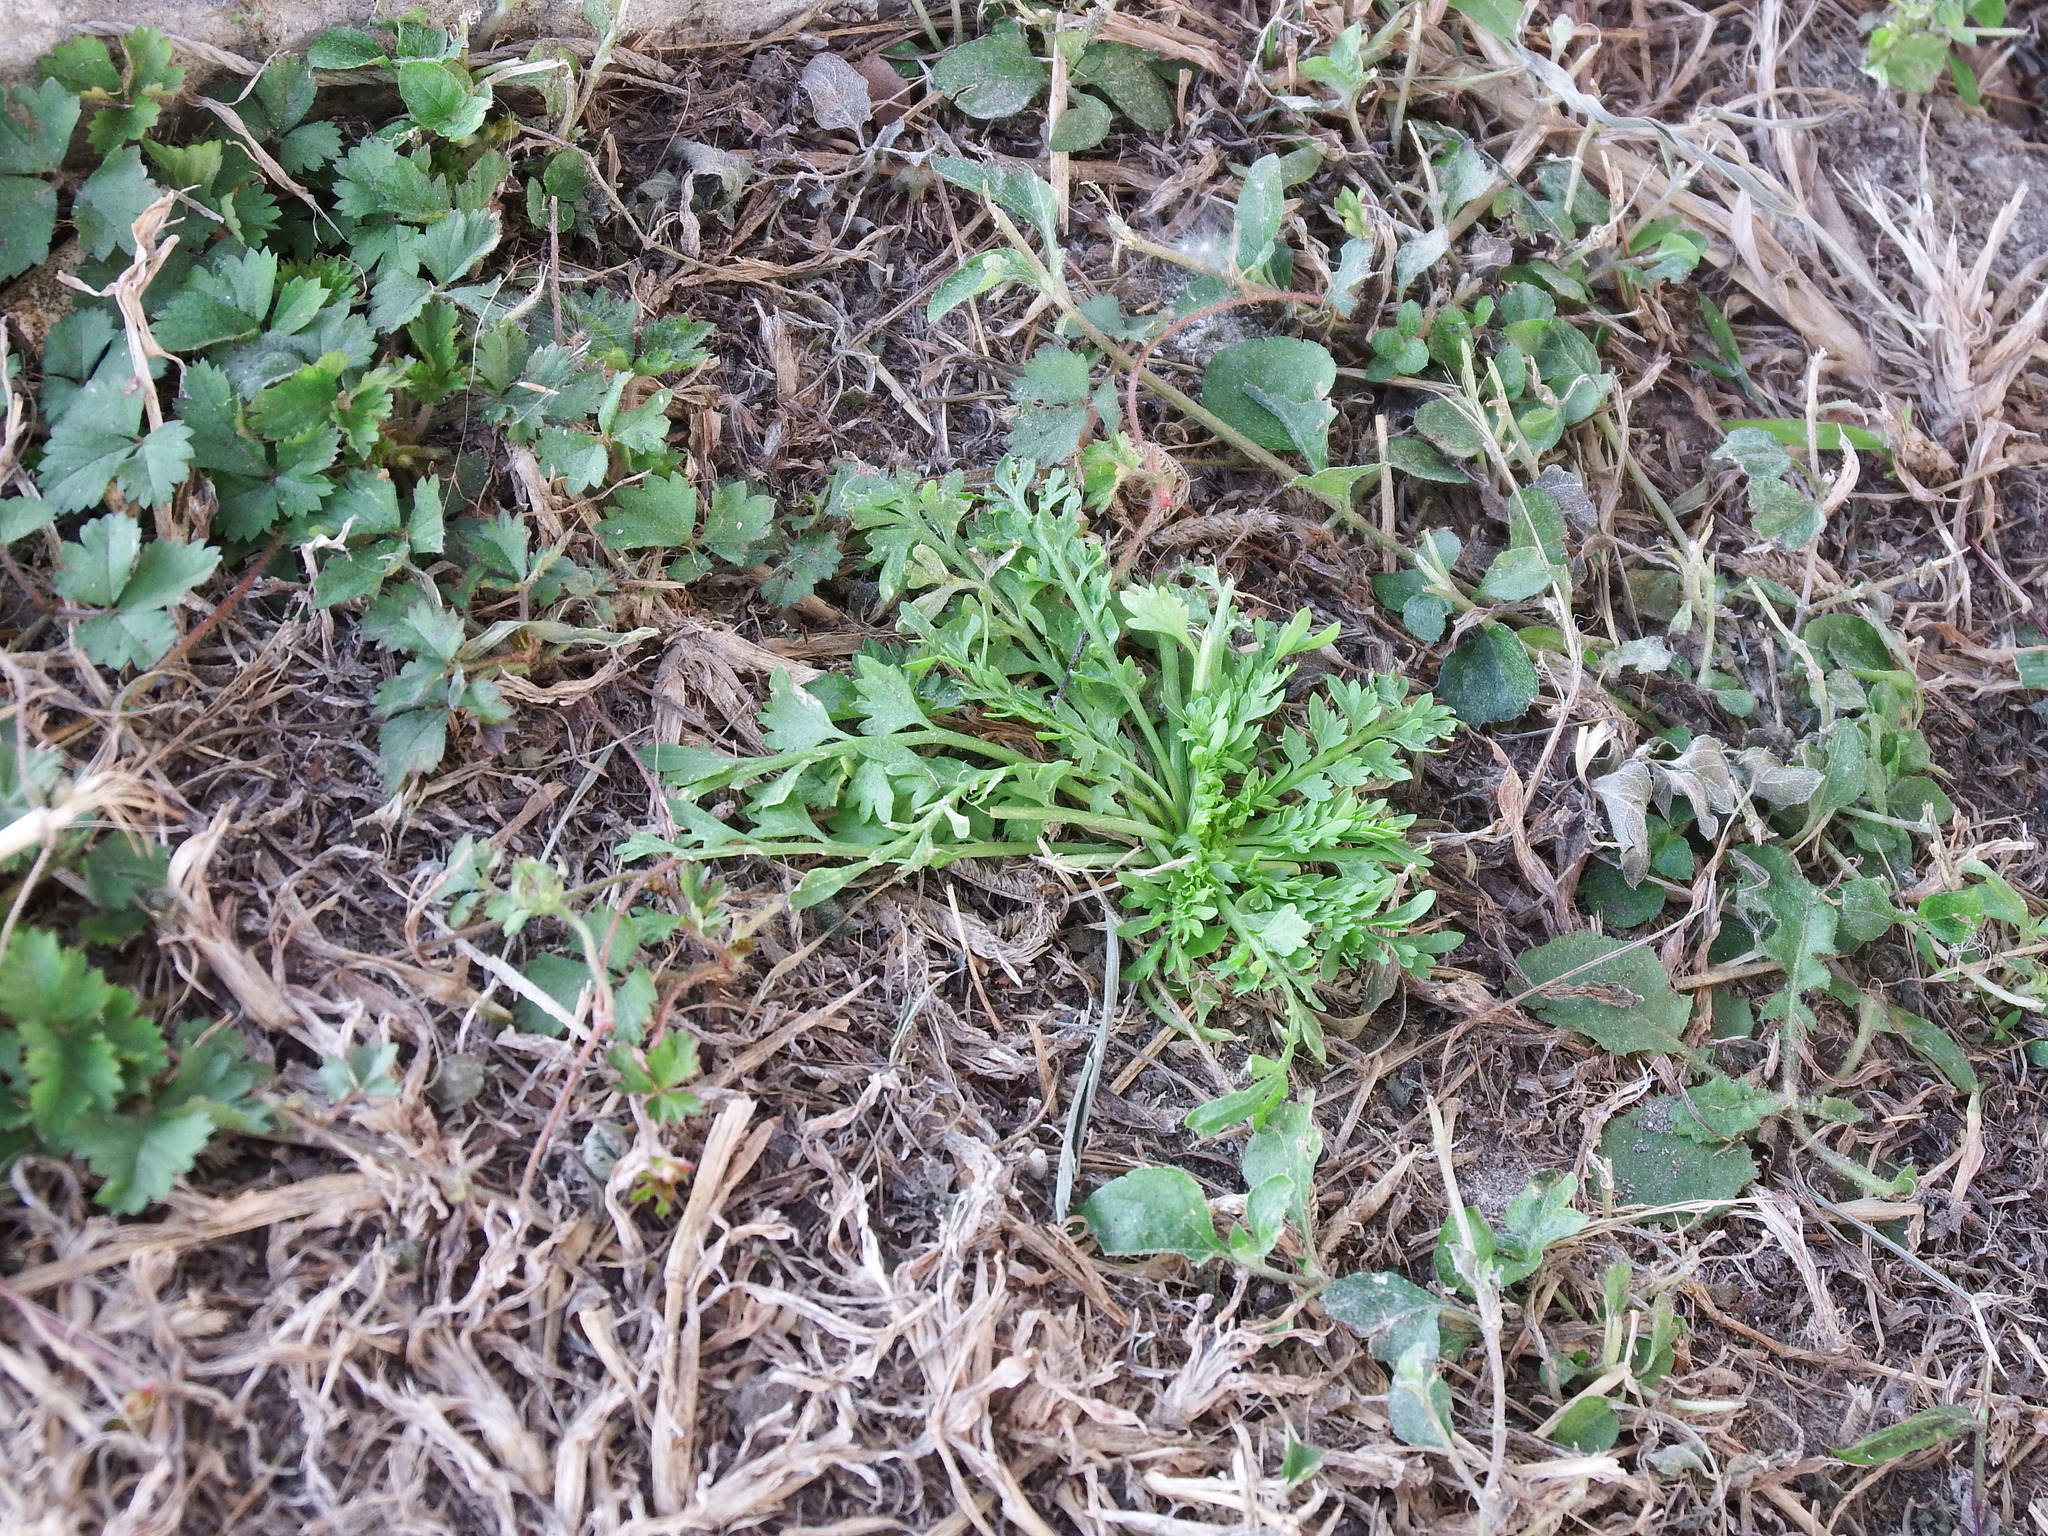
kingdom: Plantae
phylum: Tracheophyta
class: Magnoliopsida
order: Brassicales
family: Brassicaceae
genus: Lepidium
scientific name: Lepidium didymum
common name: Lesser swinecress
